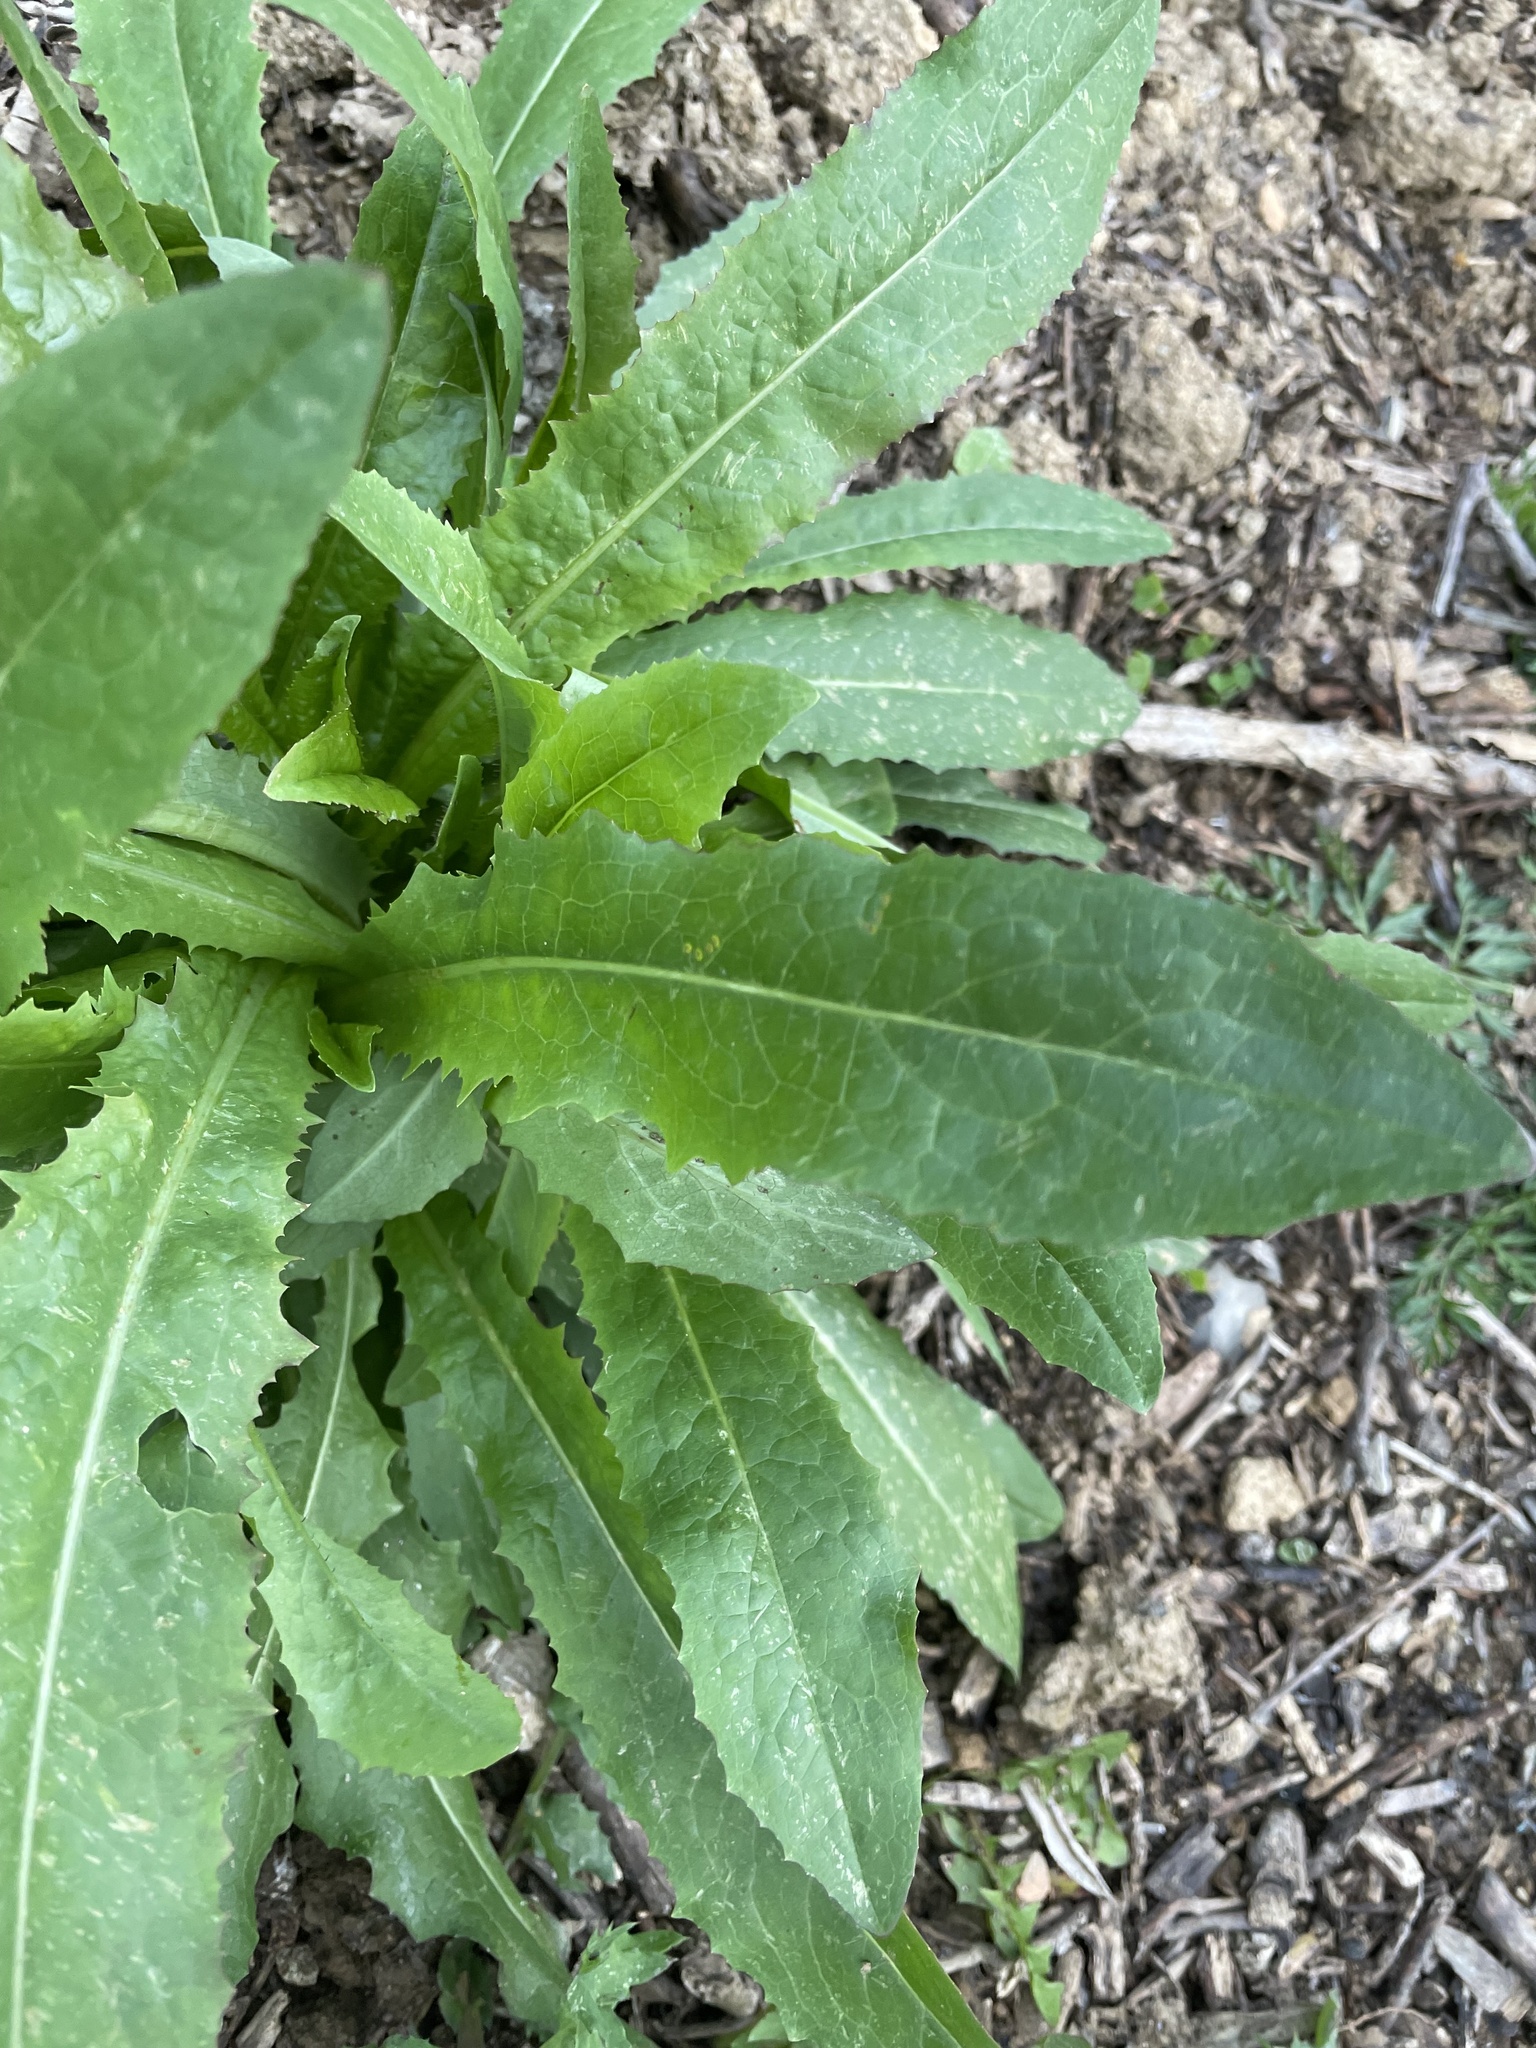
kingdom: Plantae
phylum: Tracheophyta
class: Magnoliopsida
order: Asterales
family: Asteraceae
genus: Lactuca
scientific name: Lactuca serriola
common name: Prickly lettuce
